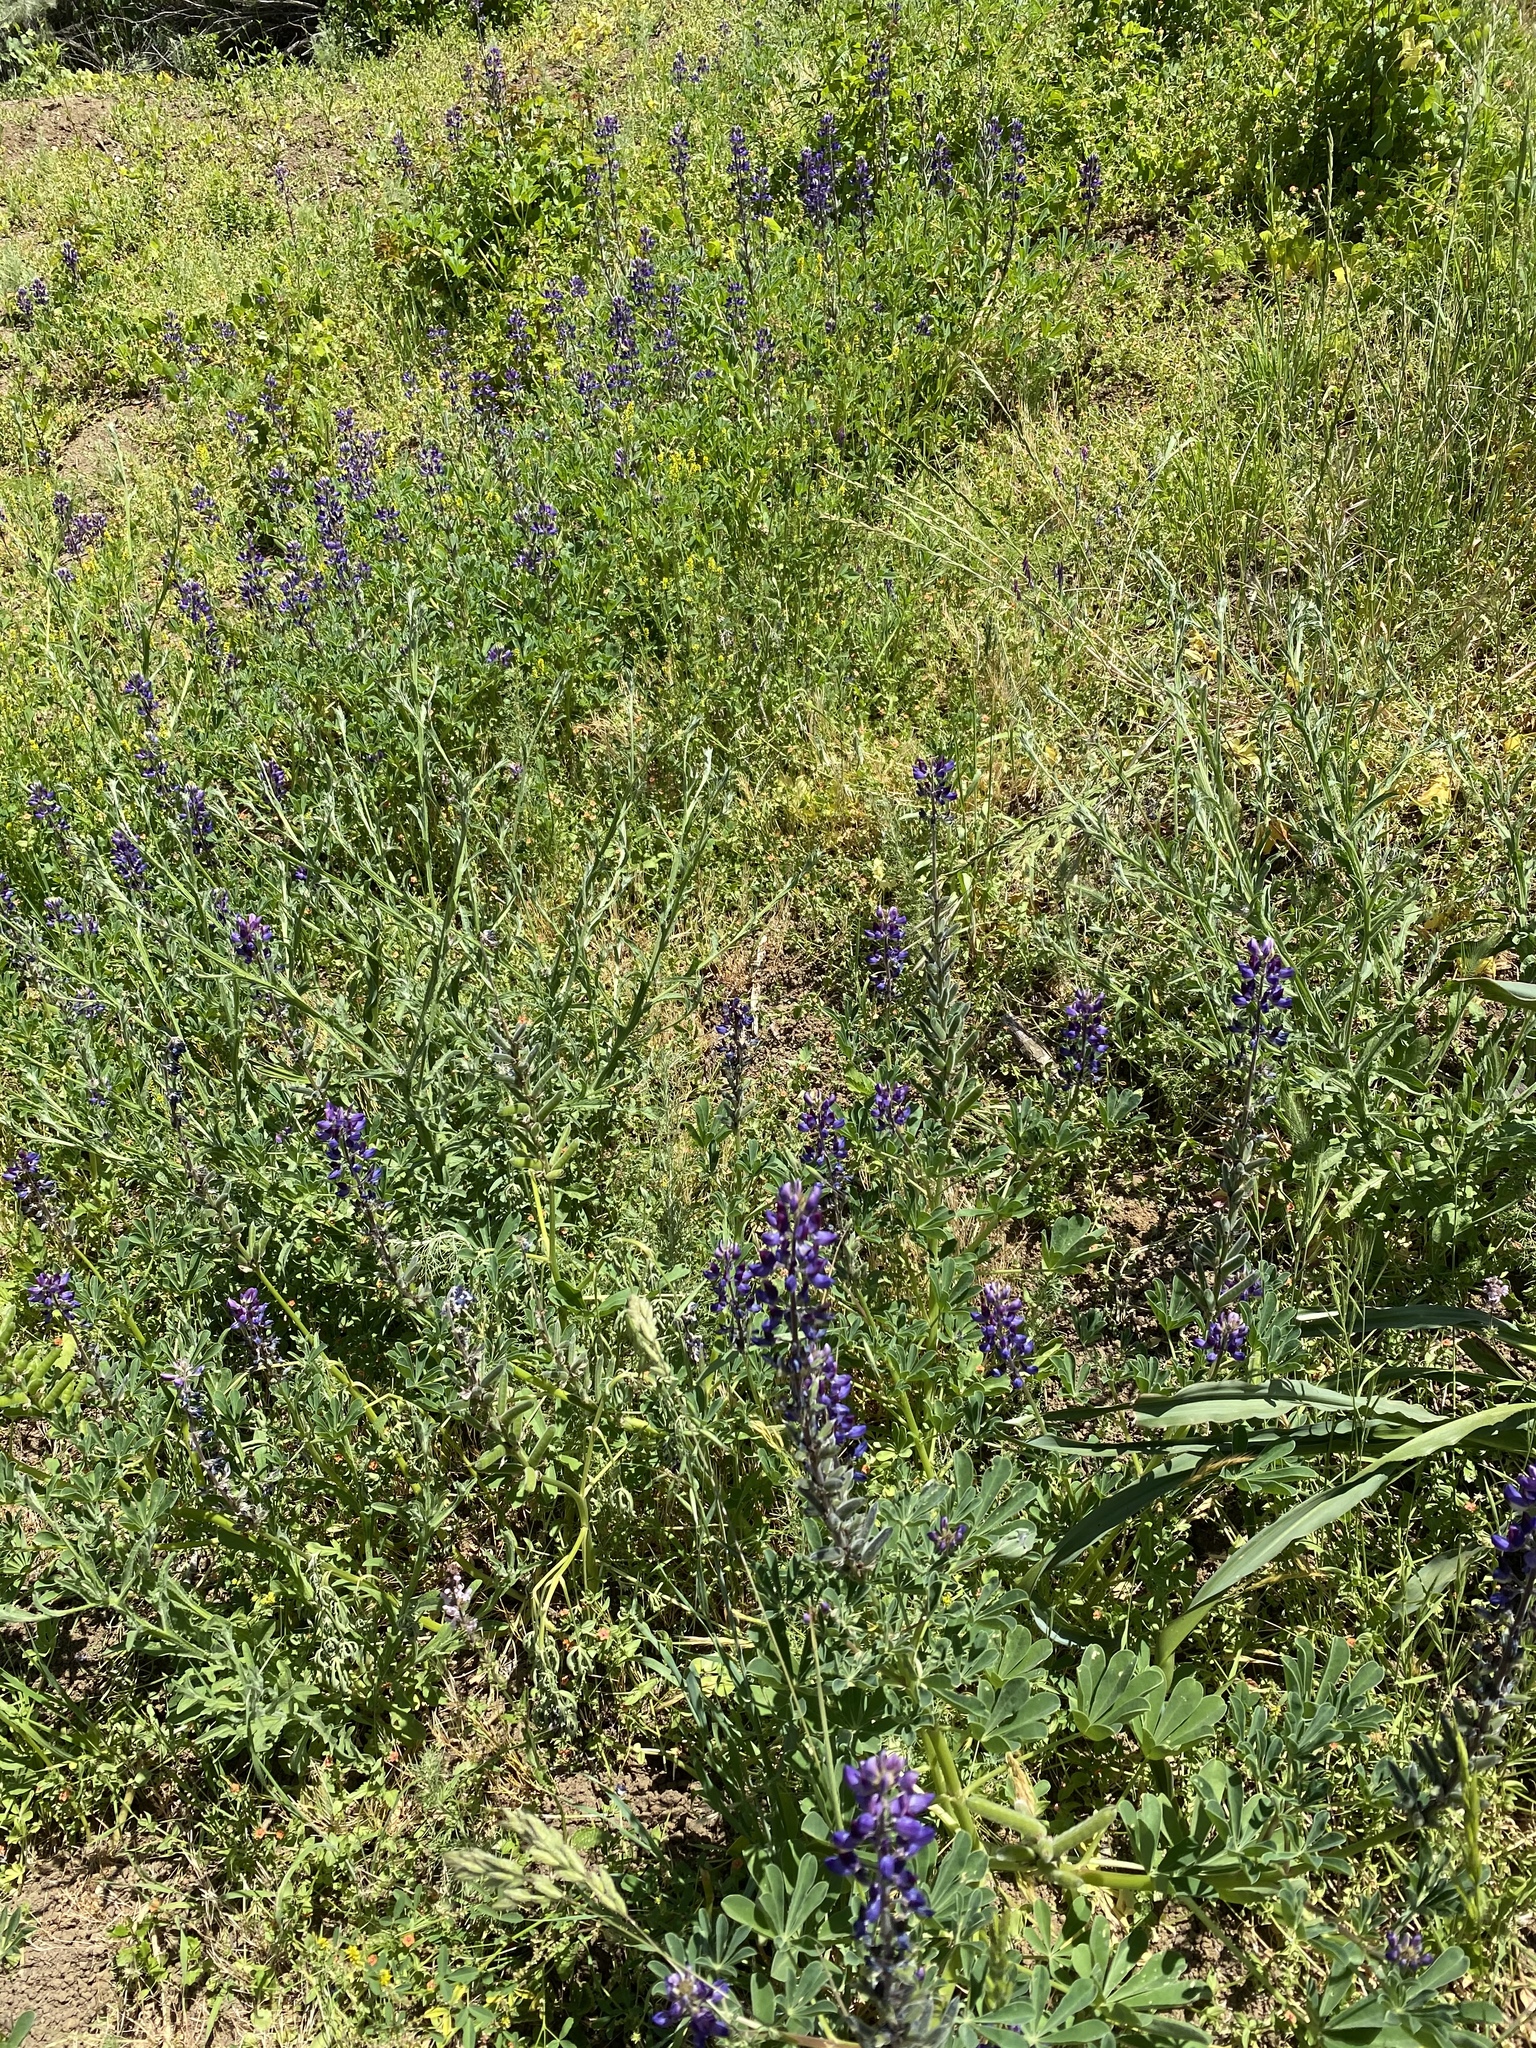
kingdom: Plantae
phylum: Tracheophyta
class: Magnoliopsida
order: Fabales
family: Fabaceae
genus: Lupinus
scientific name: Lupinus succulentus
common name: Arroyo lupine
